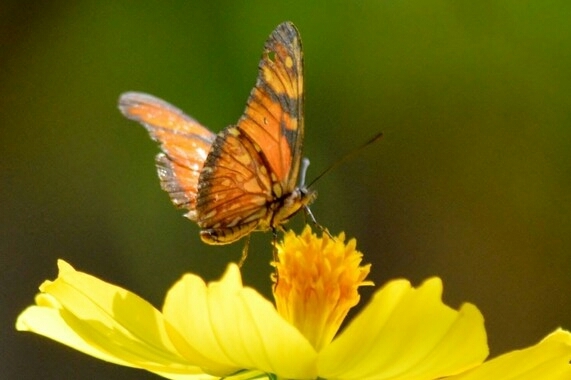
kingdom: Animalia
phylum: Arthropoda
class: Insecta
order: Lepidoptera
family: Nymphalidae
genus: Dione
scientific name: Dione juno
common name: Juno silverspot
